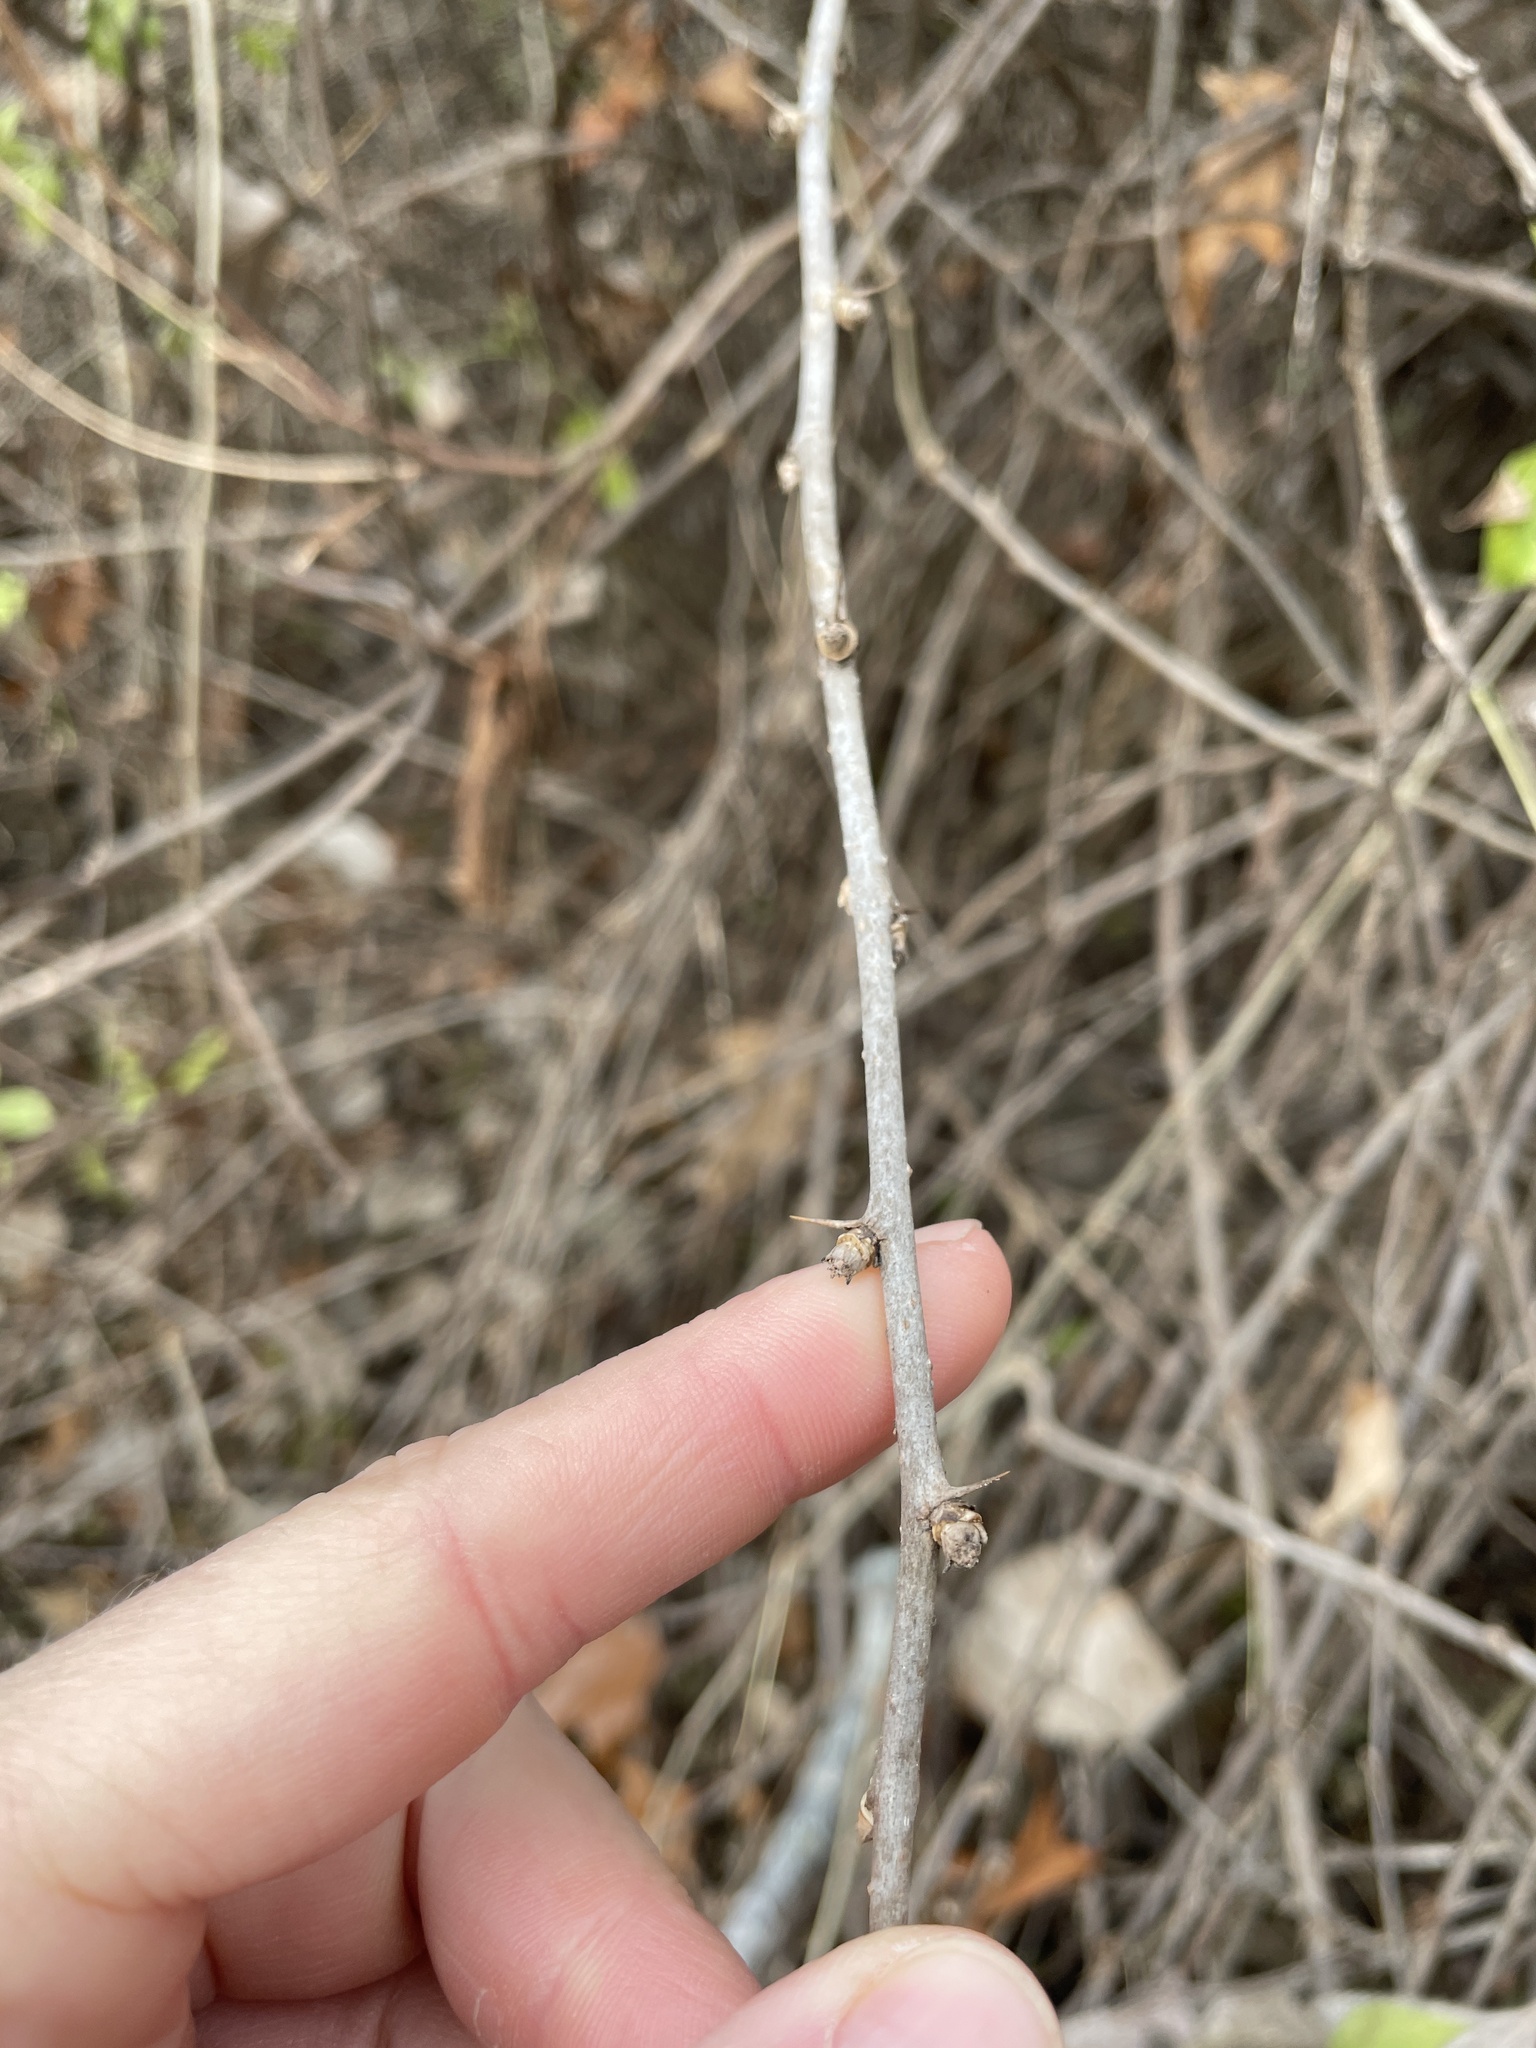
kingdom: Plantae
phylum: Tracheophyta
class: Magnoliopsida
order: Apiales
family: Araliaceae
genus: Eleutherococcus
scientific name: Eleutherococcus sieboldianus
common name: Ginseng
